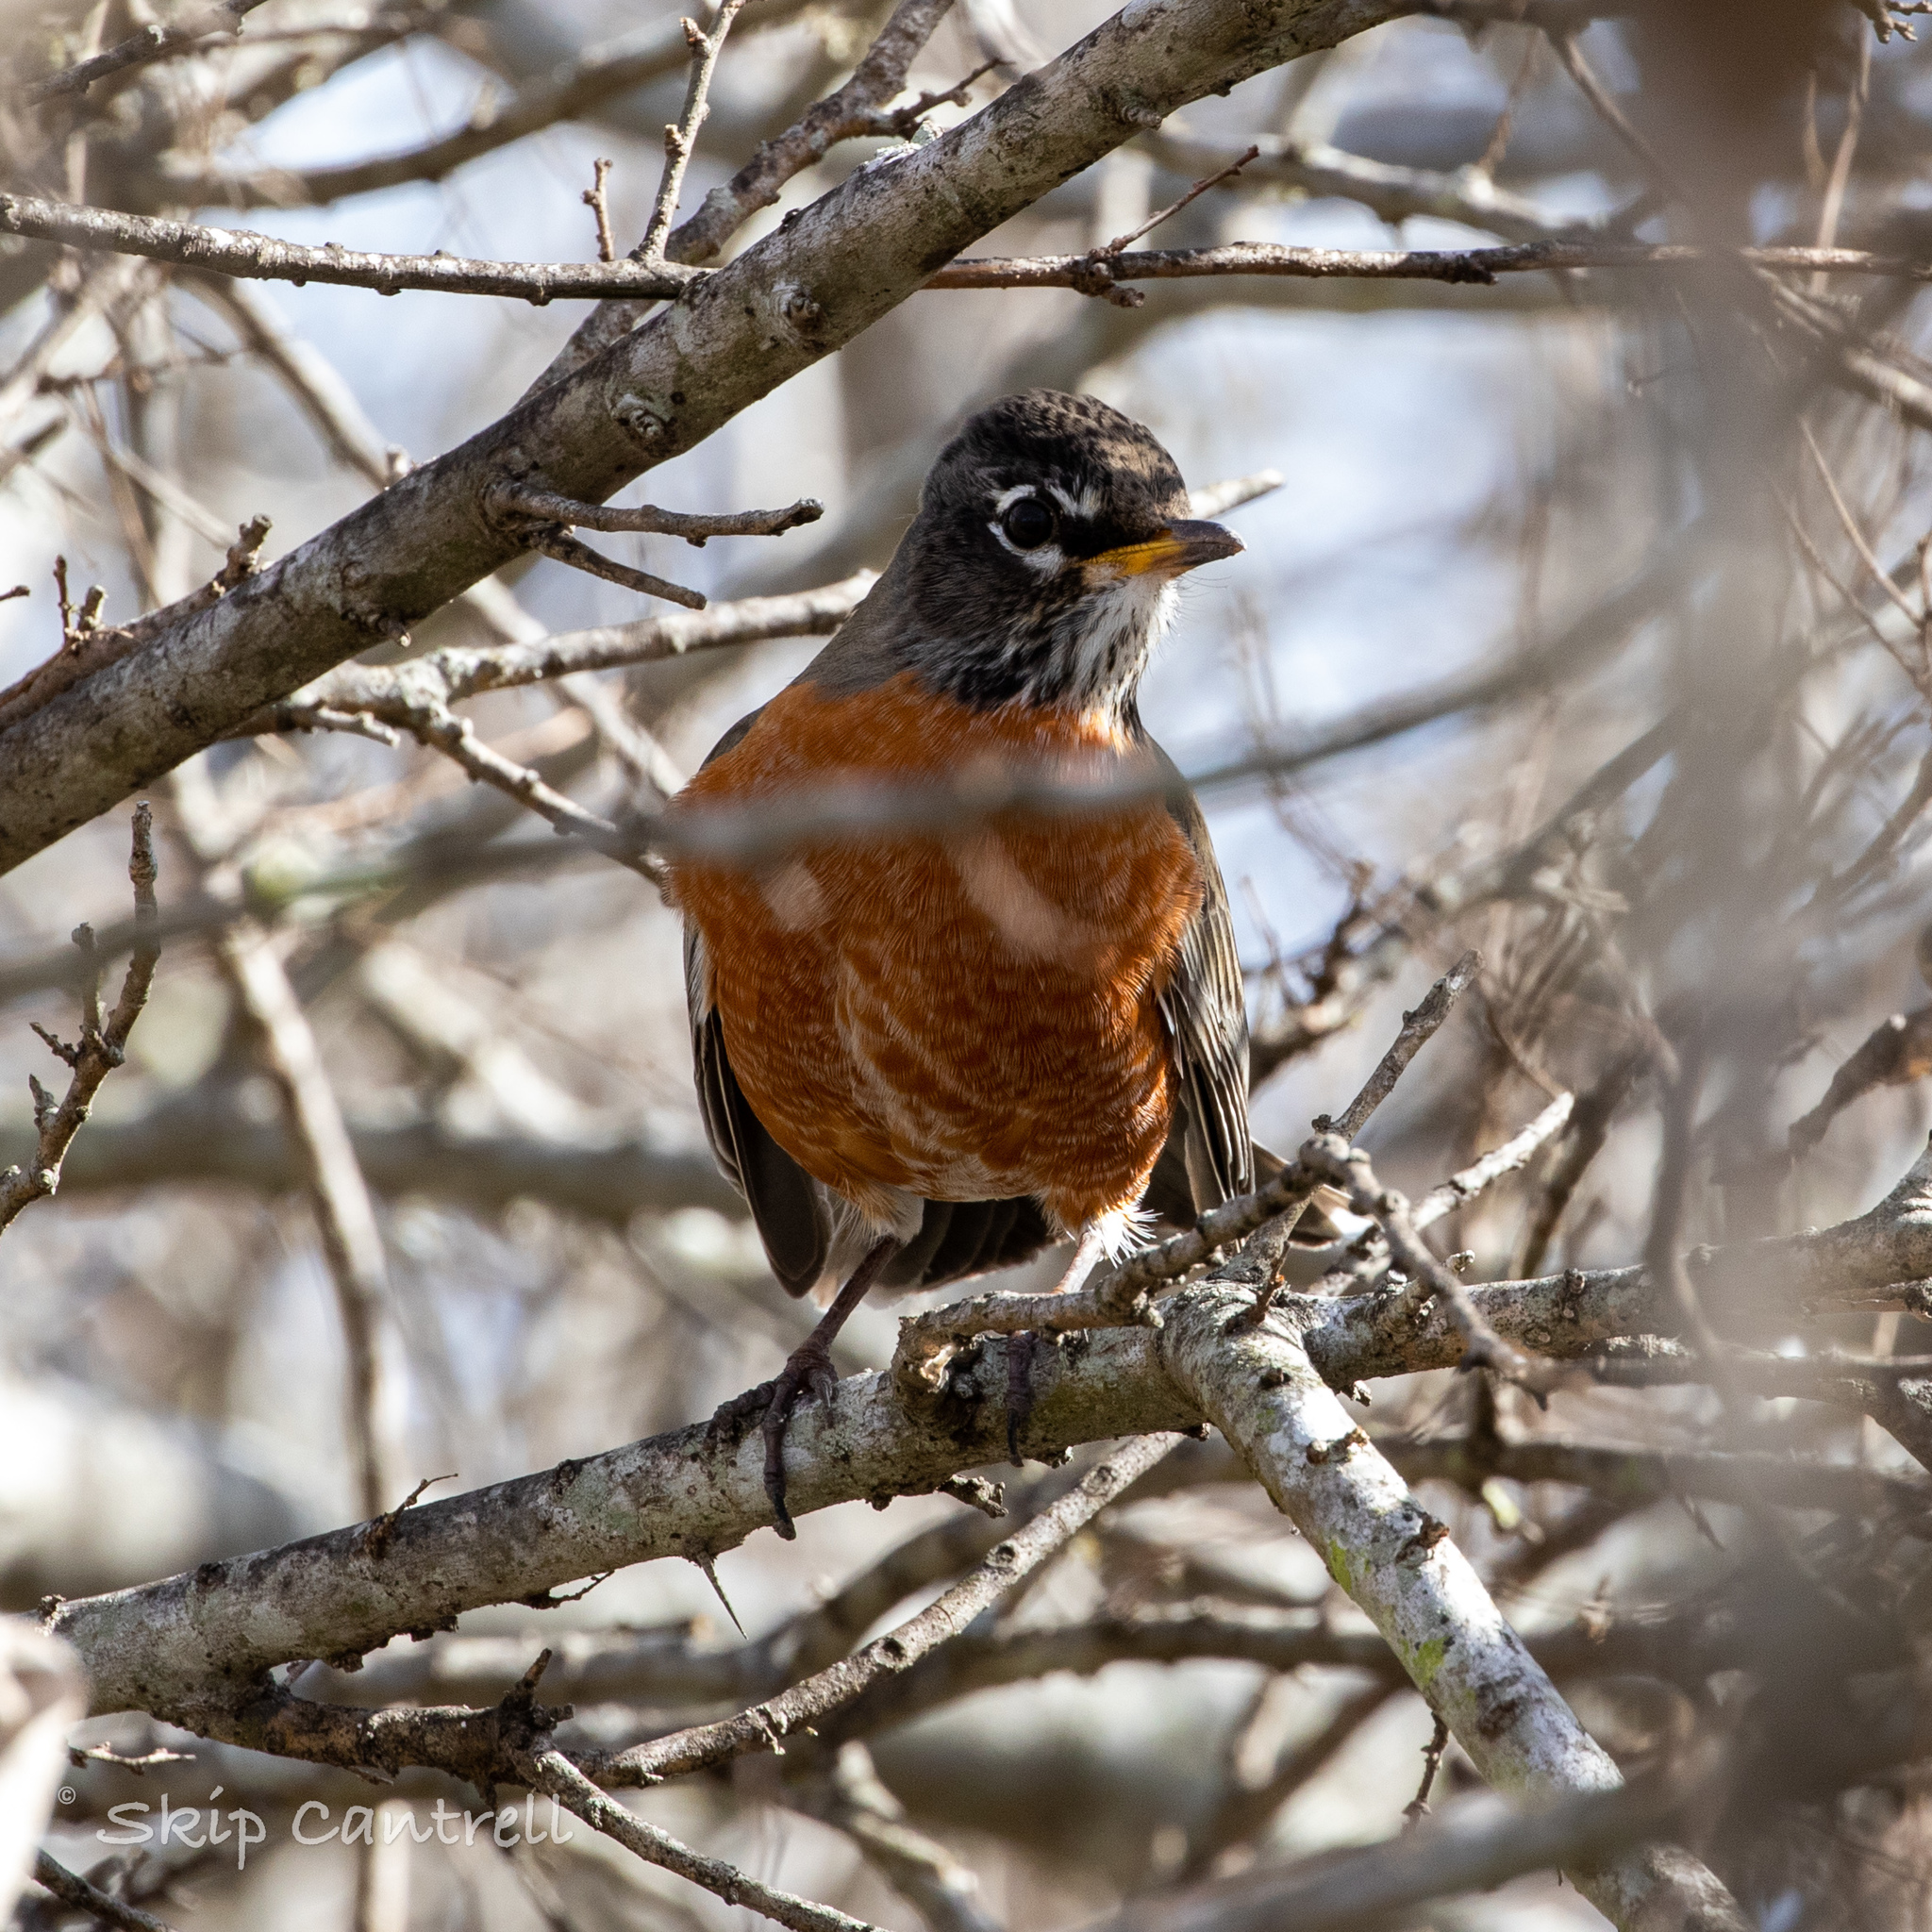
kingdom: Animalia
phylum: Chordata
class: Aves
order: Passeriformes
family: Turdidae
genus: Turdus
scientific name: Turdus migratorius
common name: American robin
